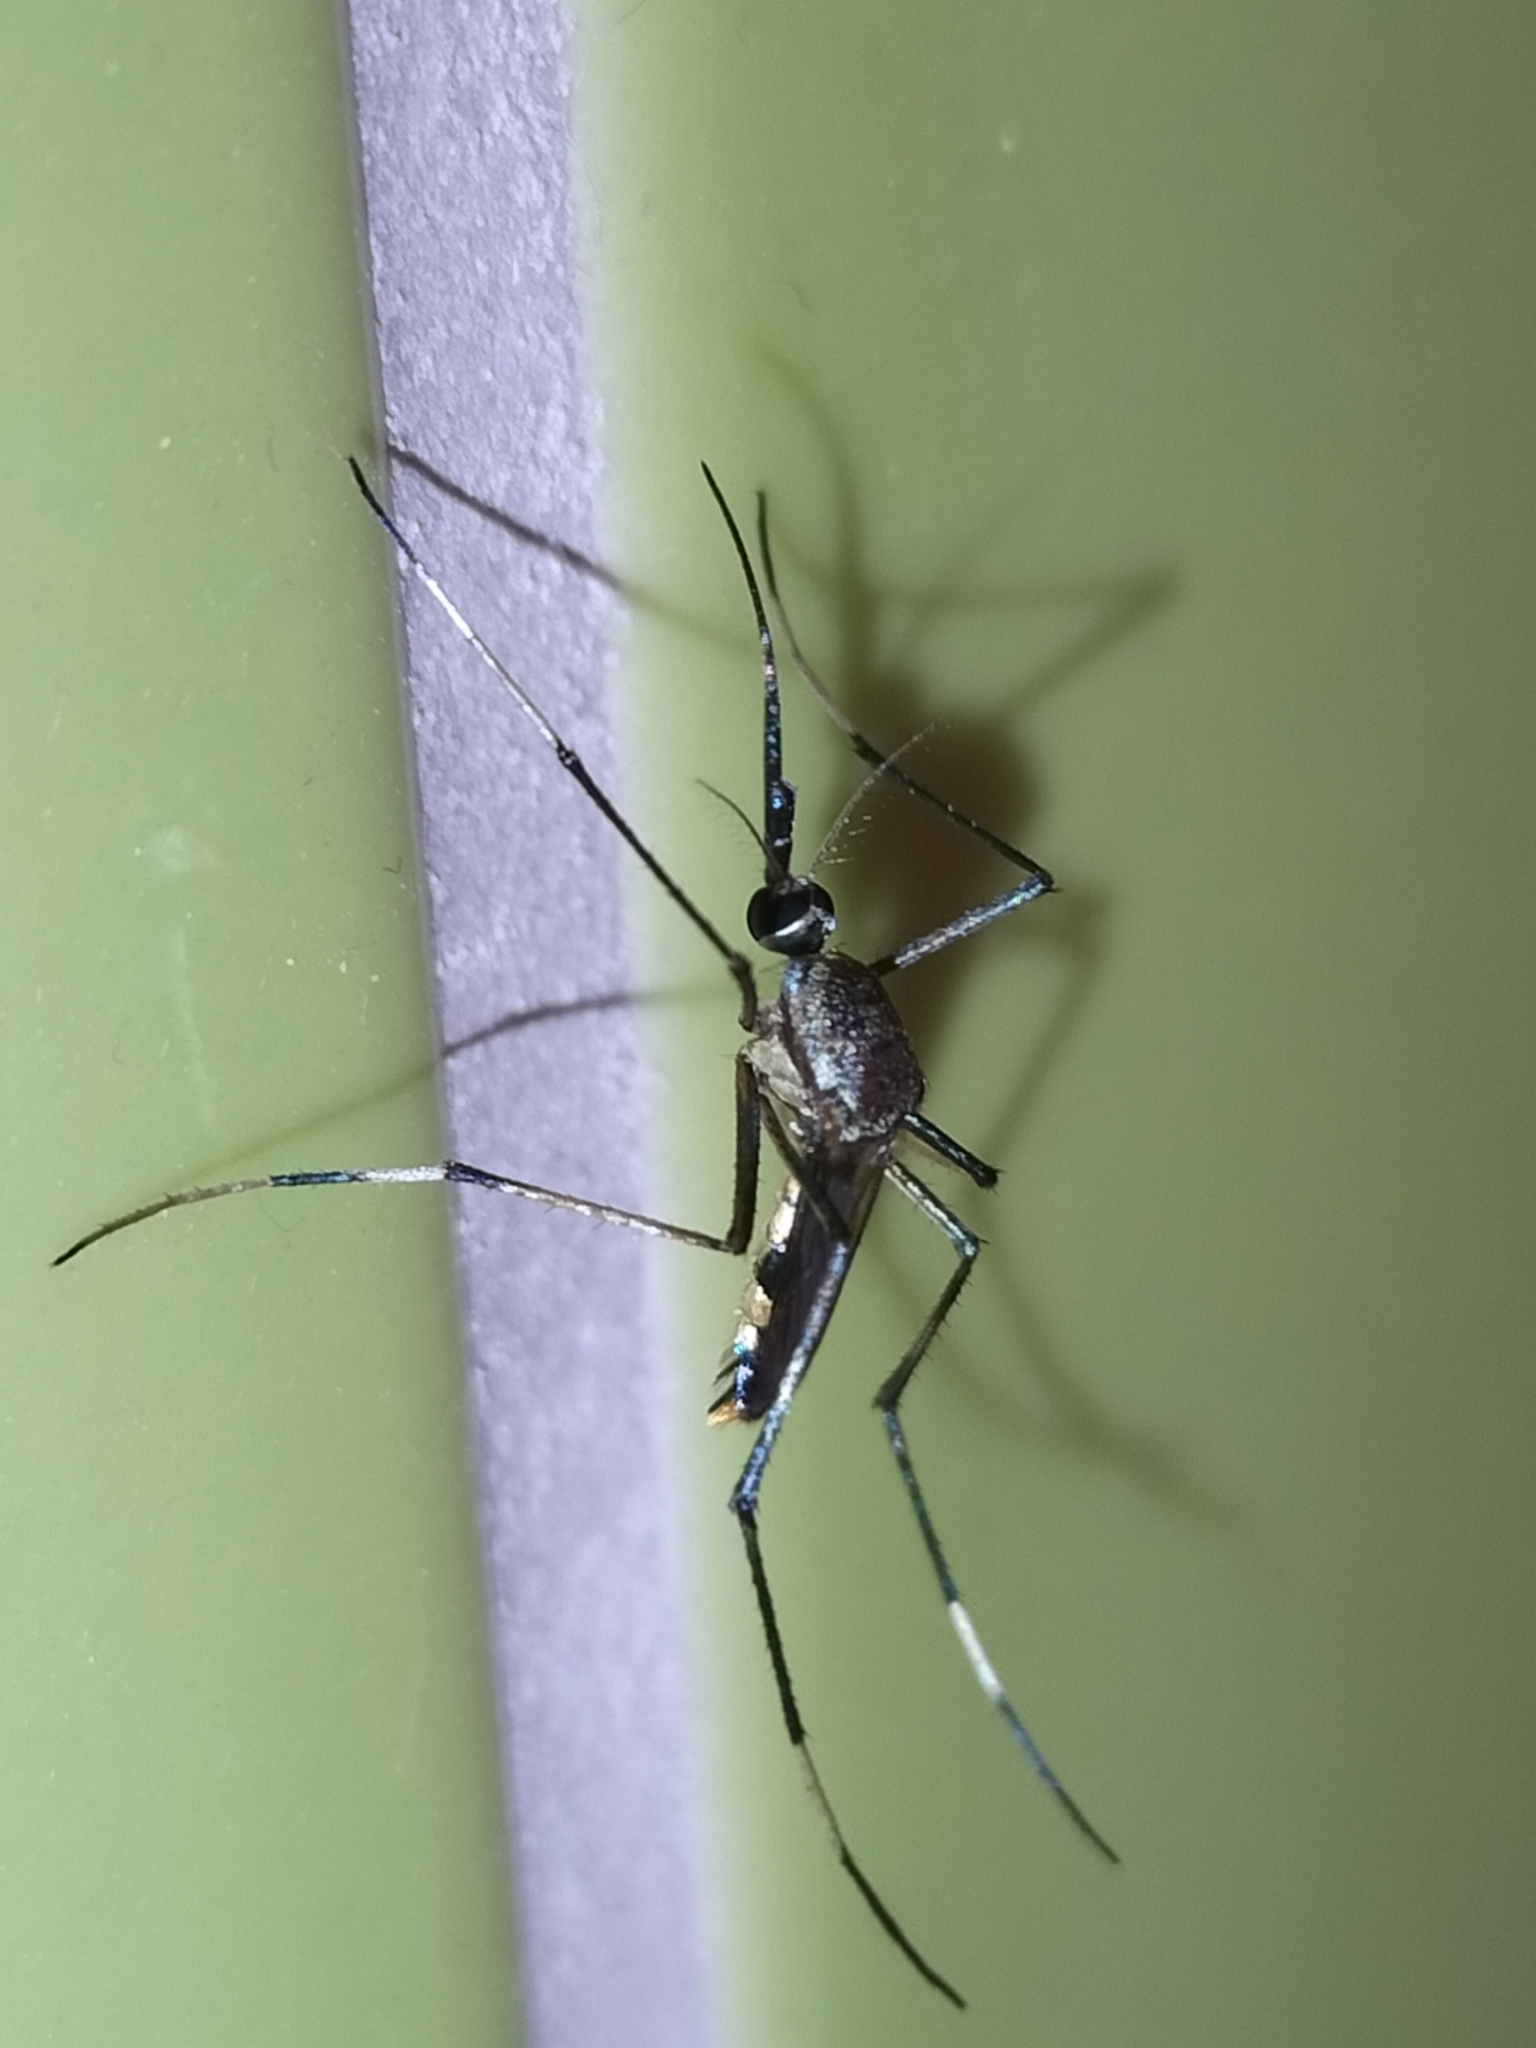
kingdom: Animalia
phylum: Arthropoda
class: Insecta
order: Diptera
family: Culicidae
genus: Toxorhynchites
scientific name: Toxorhynchites speciosus
